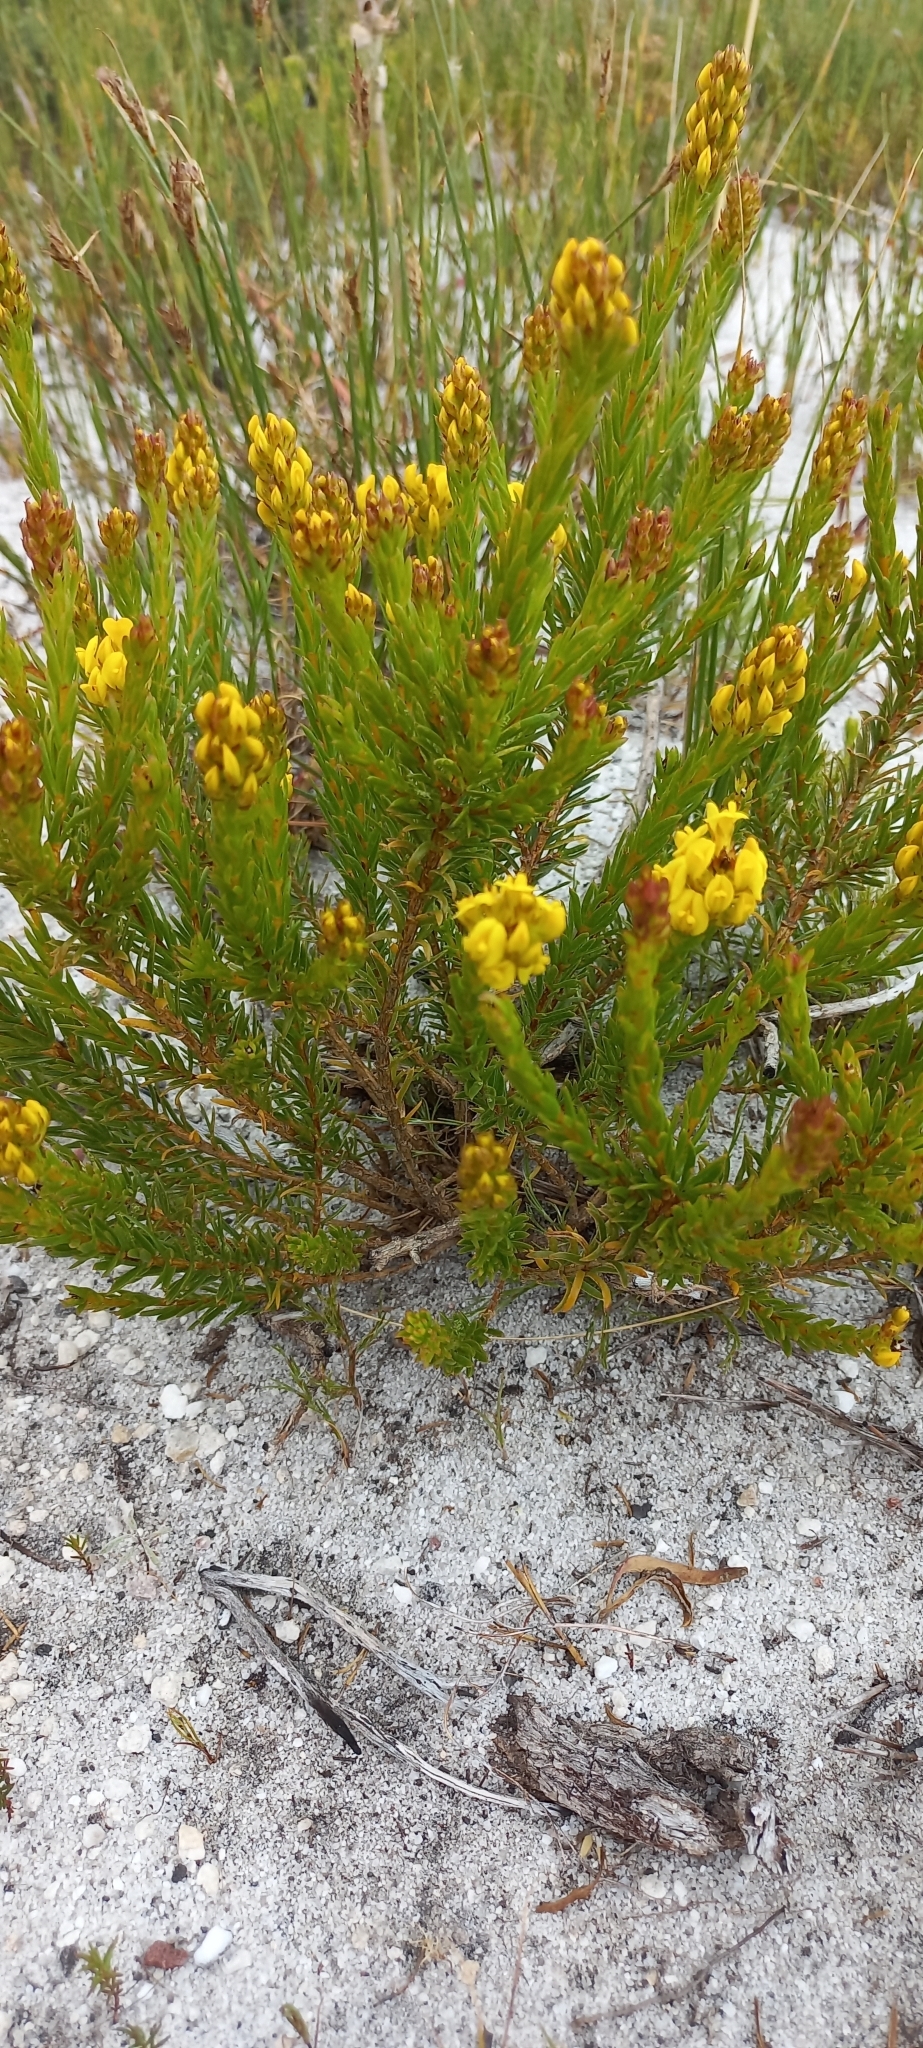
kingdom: Plantae
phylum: Tracheophyta
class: Magnoliopsida
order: Fabales
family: Fabaceae
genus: Aspalathus
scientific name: Aspalathus callosa
